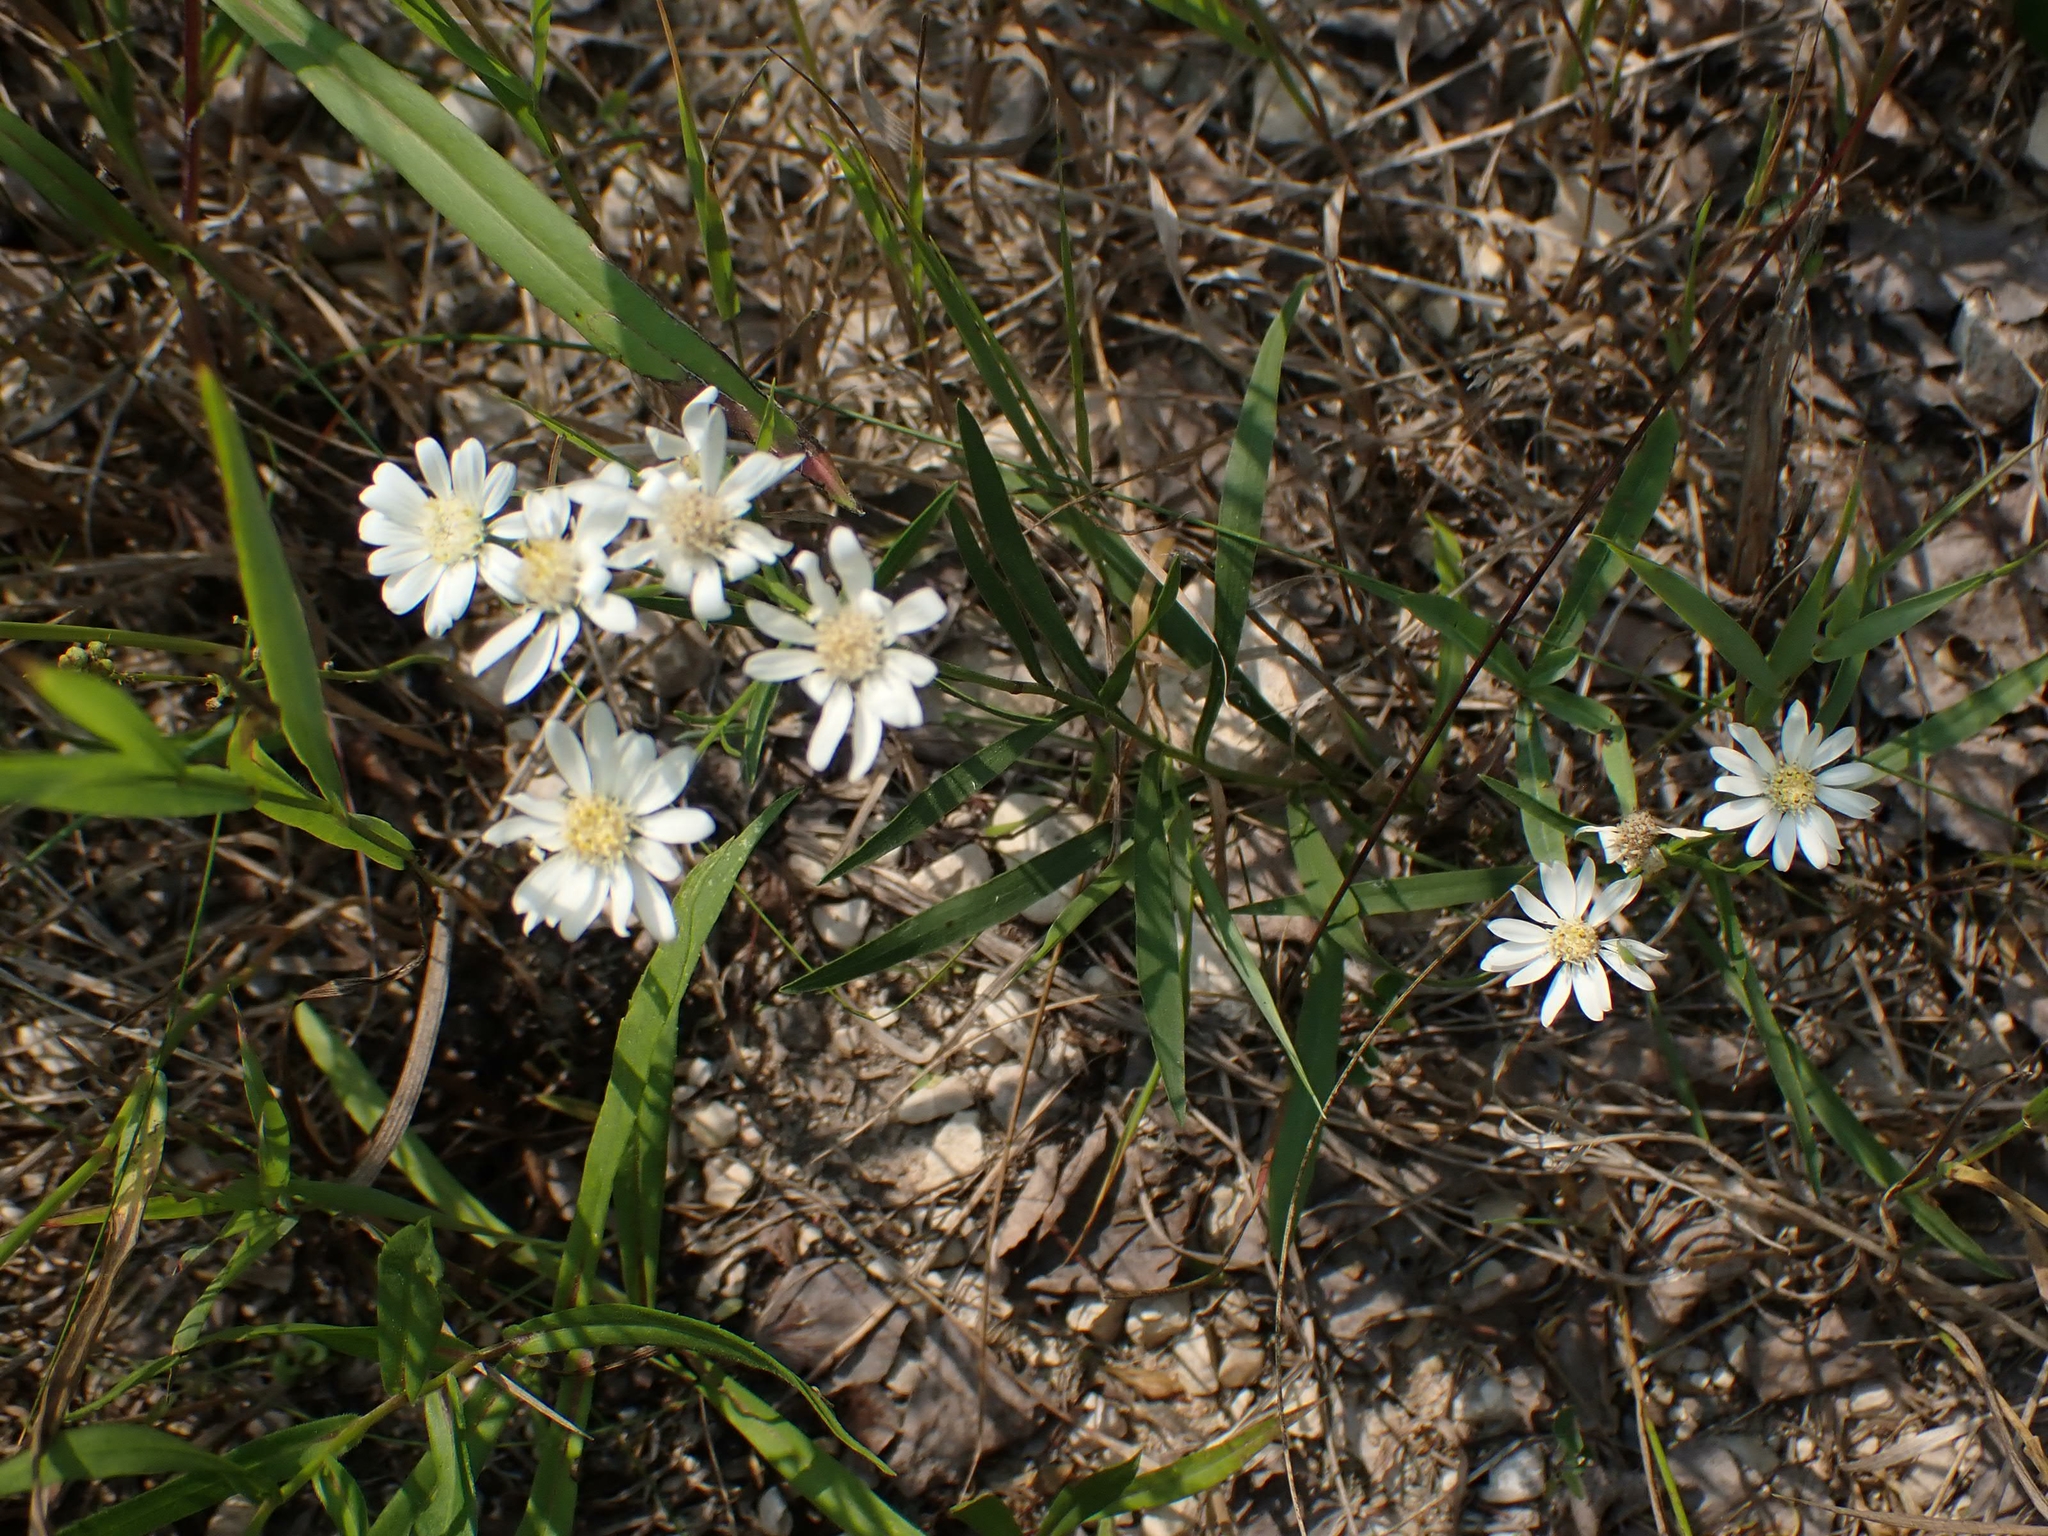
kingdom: Plantae
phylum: Tracheophyta
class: Magnoliopsida
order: Asterales
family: Asteraceae
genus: Solidago
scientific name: Solidago ptarmicoides
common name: White flat-top goldenrod
